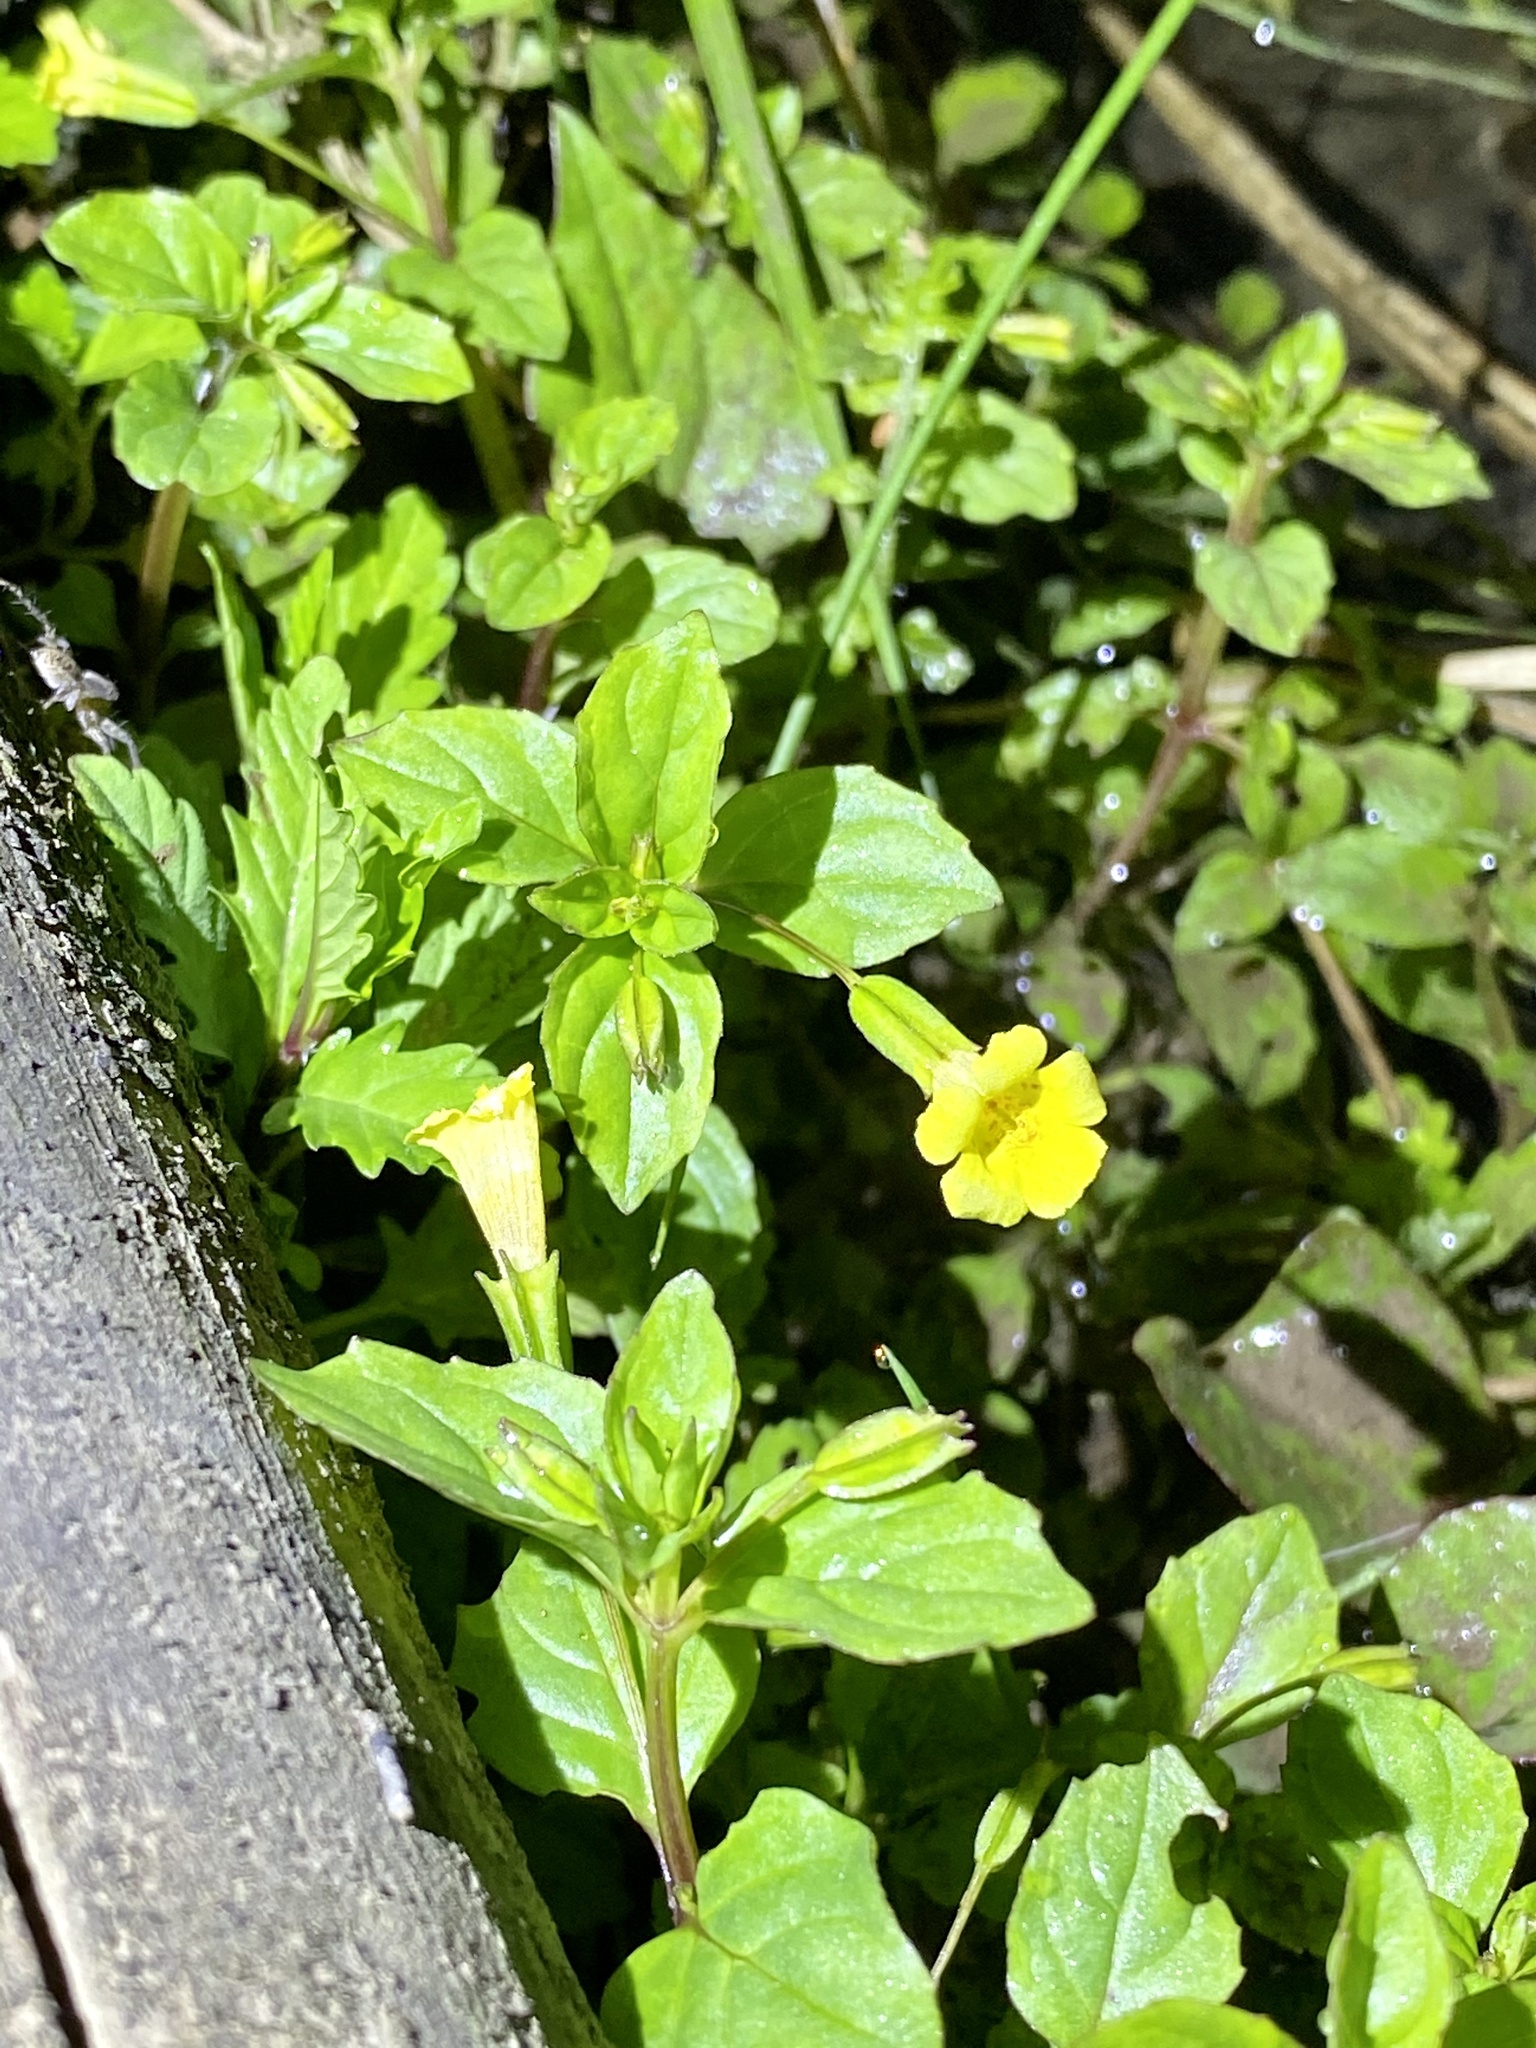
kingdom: Plantae
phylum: Tracheophyta
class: Magnoliopsida
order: Lamiales
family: Phrymaceae
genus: Erythranthe
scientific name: Erythranthe nepalensis
